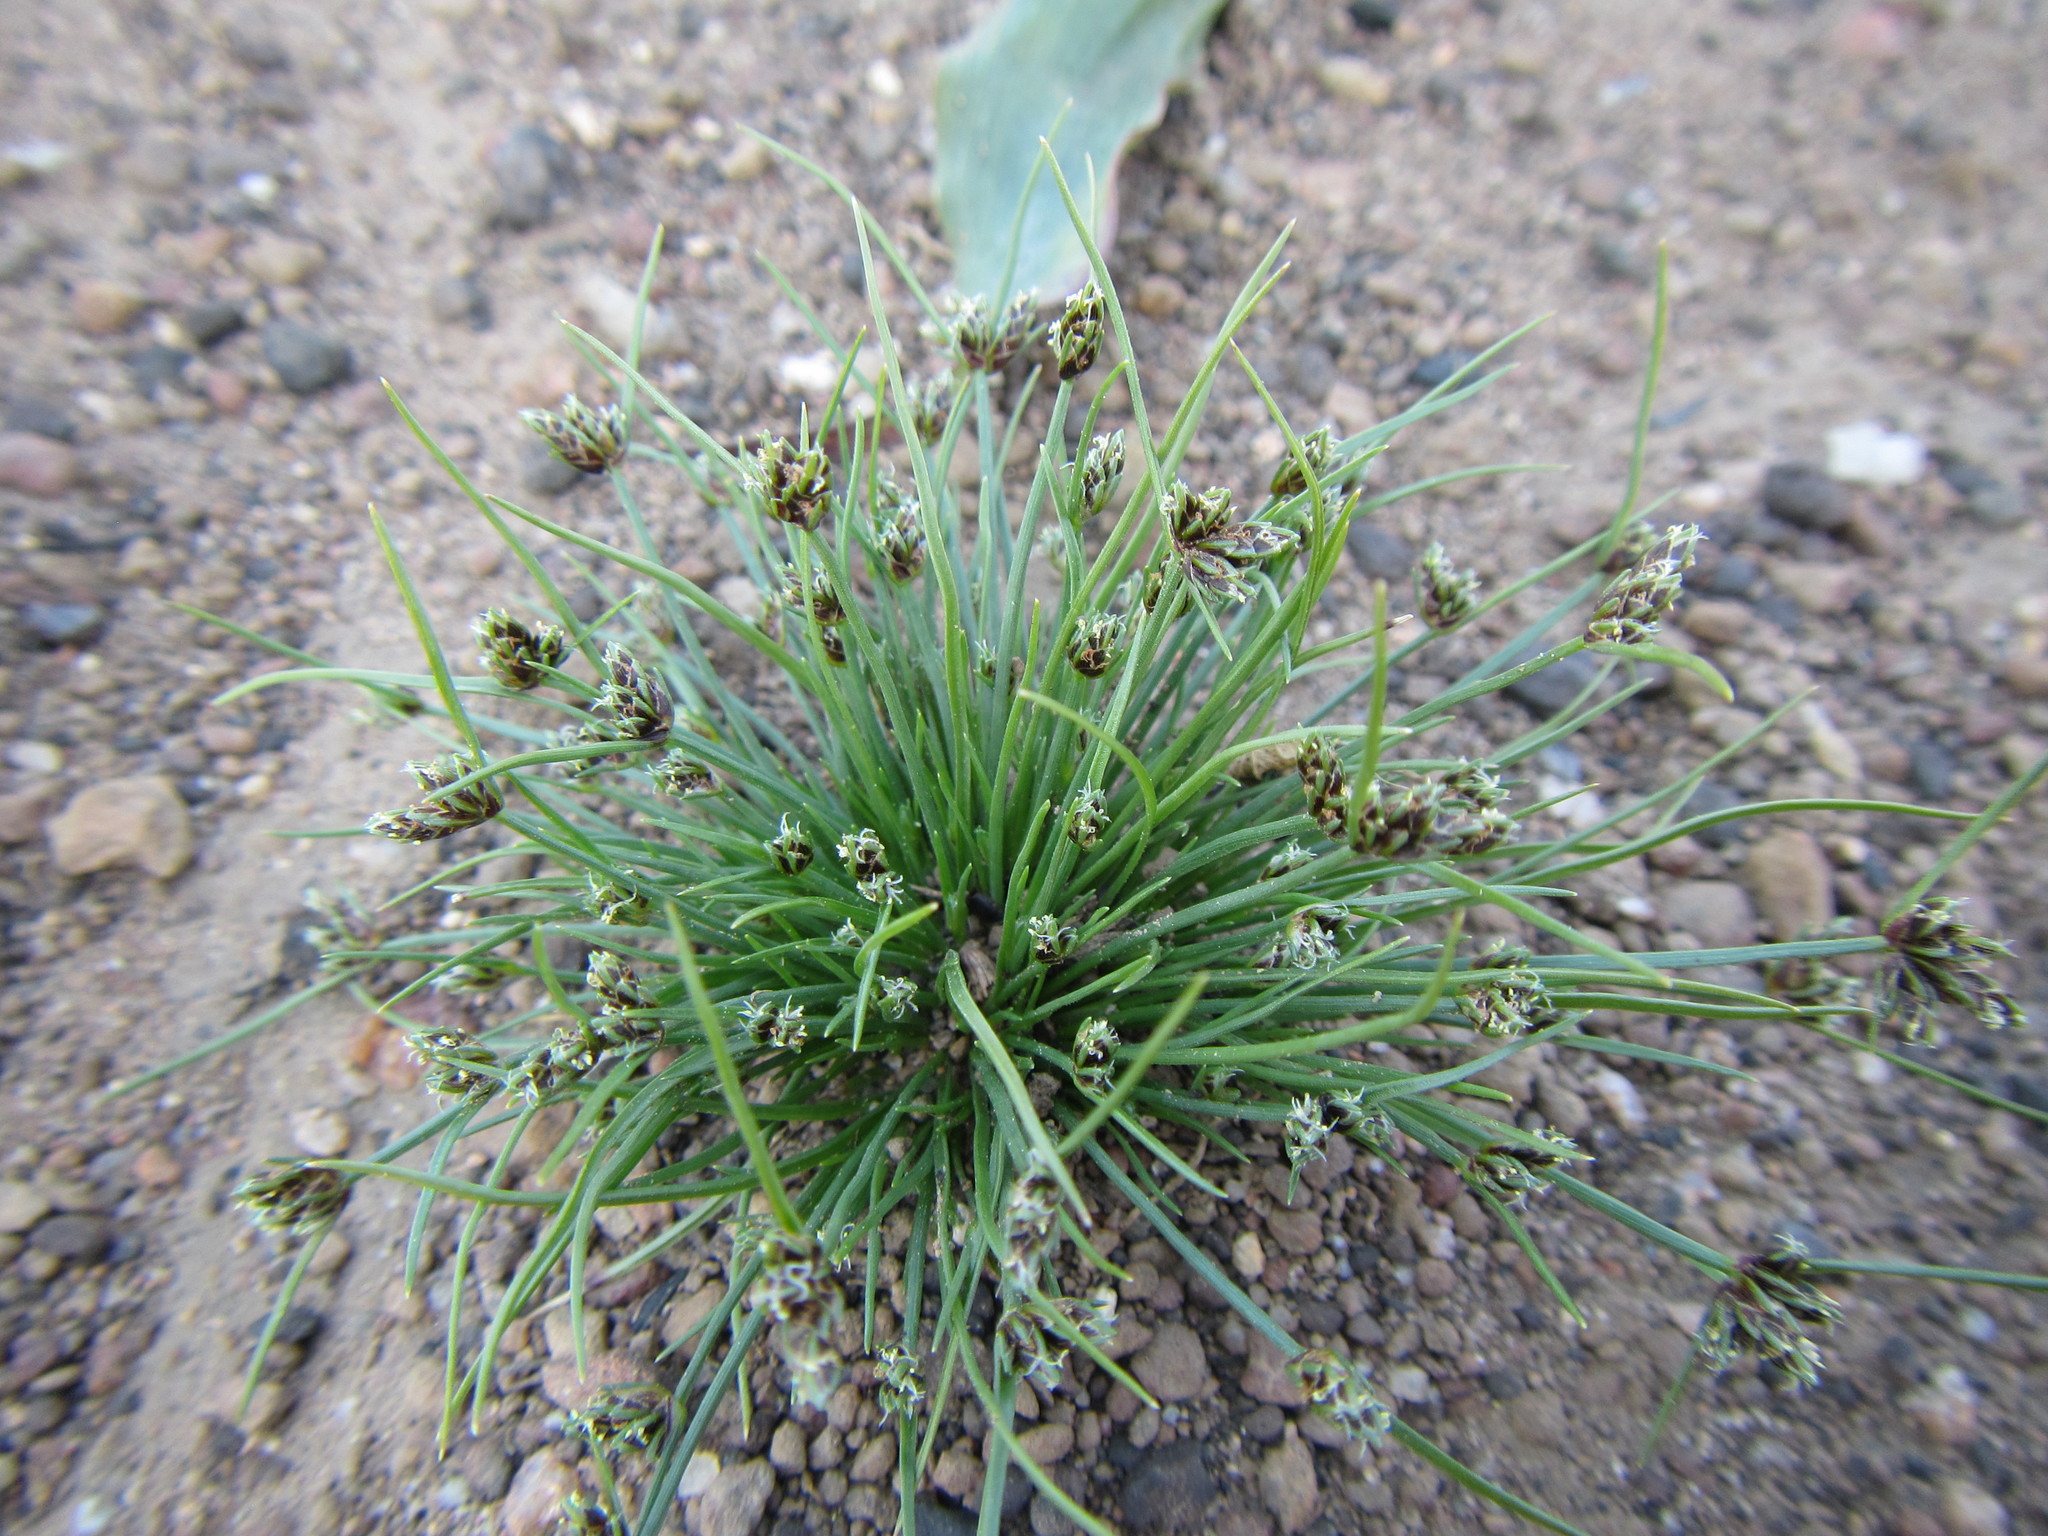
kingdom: Plantae
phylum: Tracheophyta
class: Liliopsida
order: Poales
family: Cyperaceae
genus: Isolepis
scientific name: Isolepis marginata
